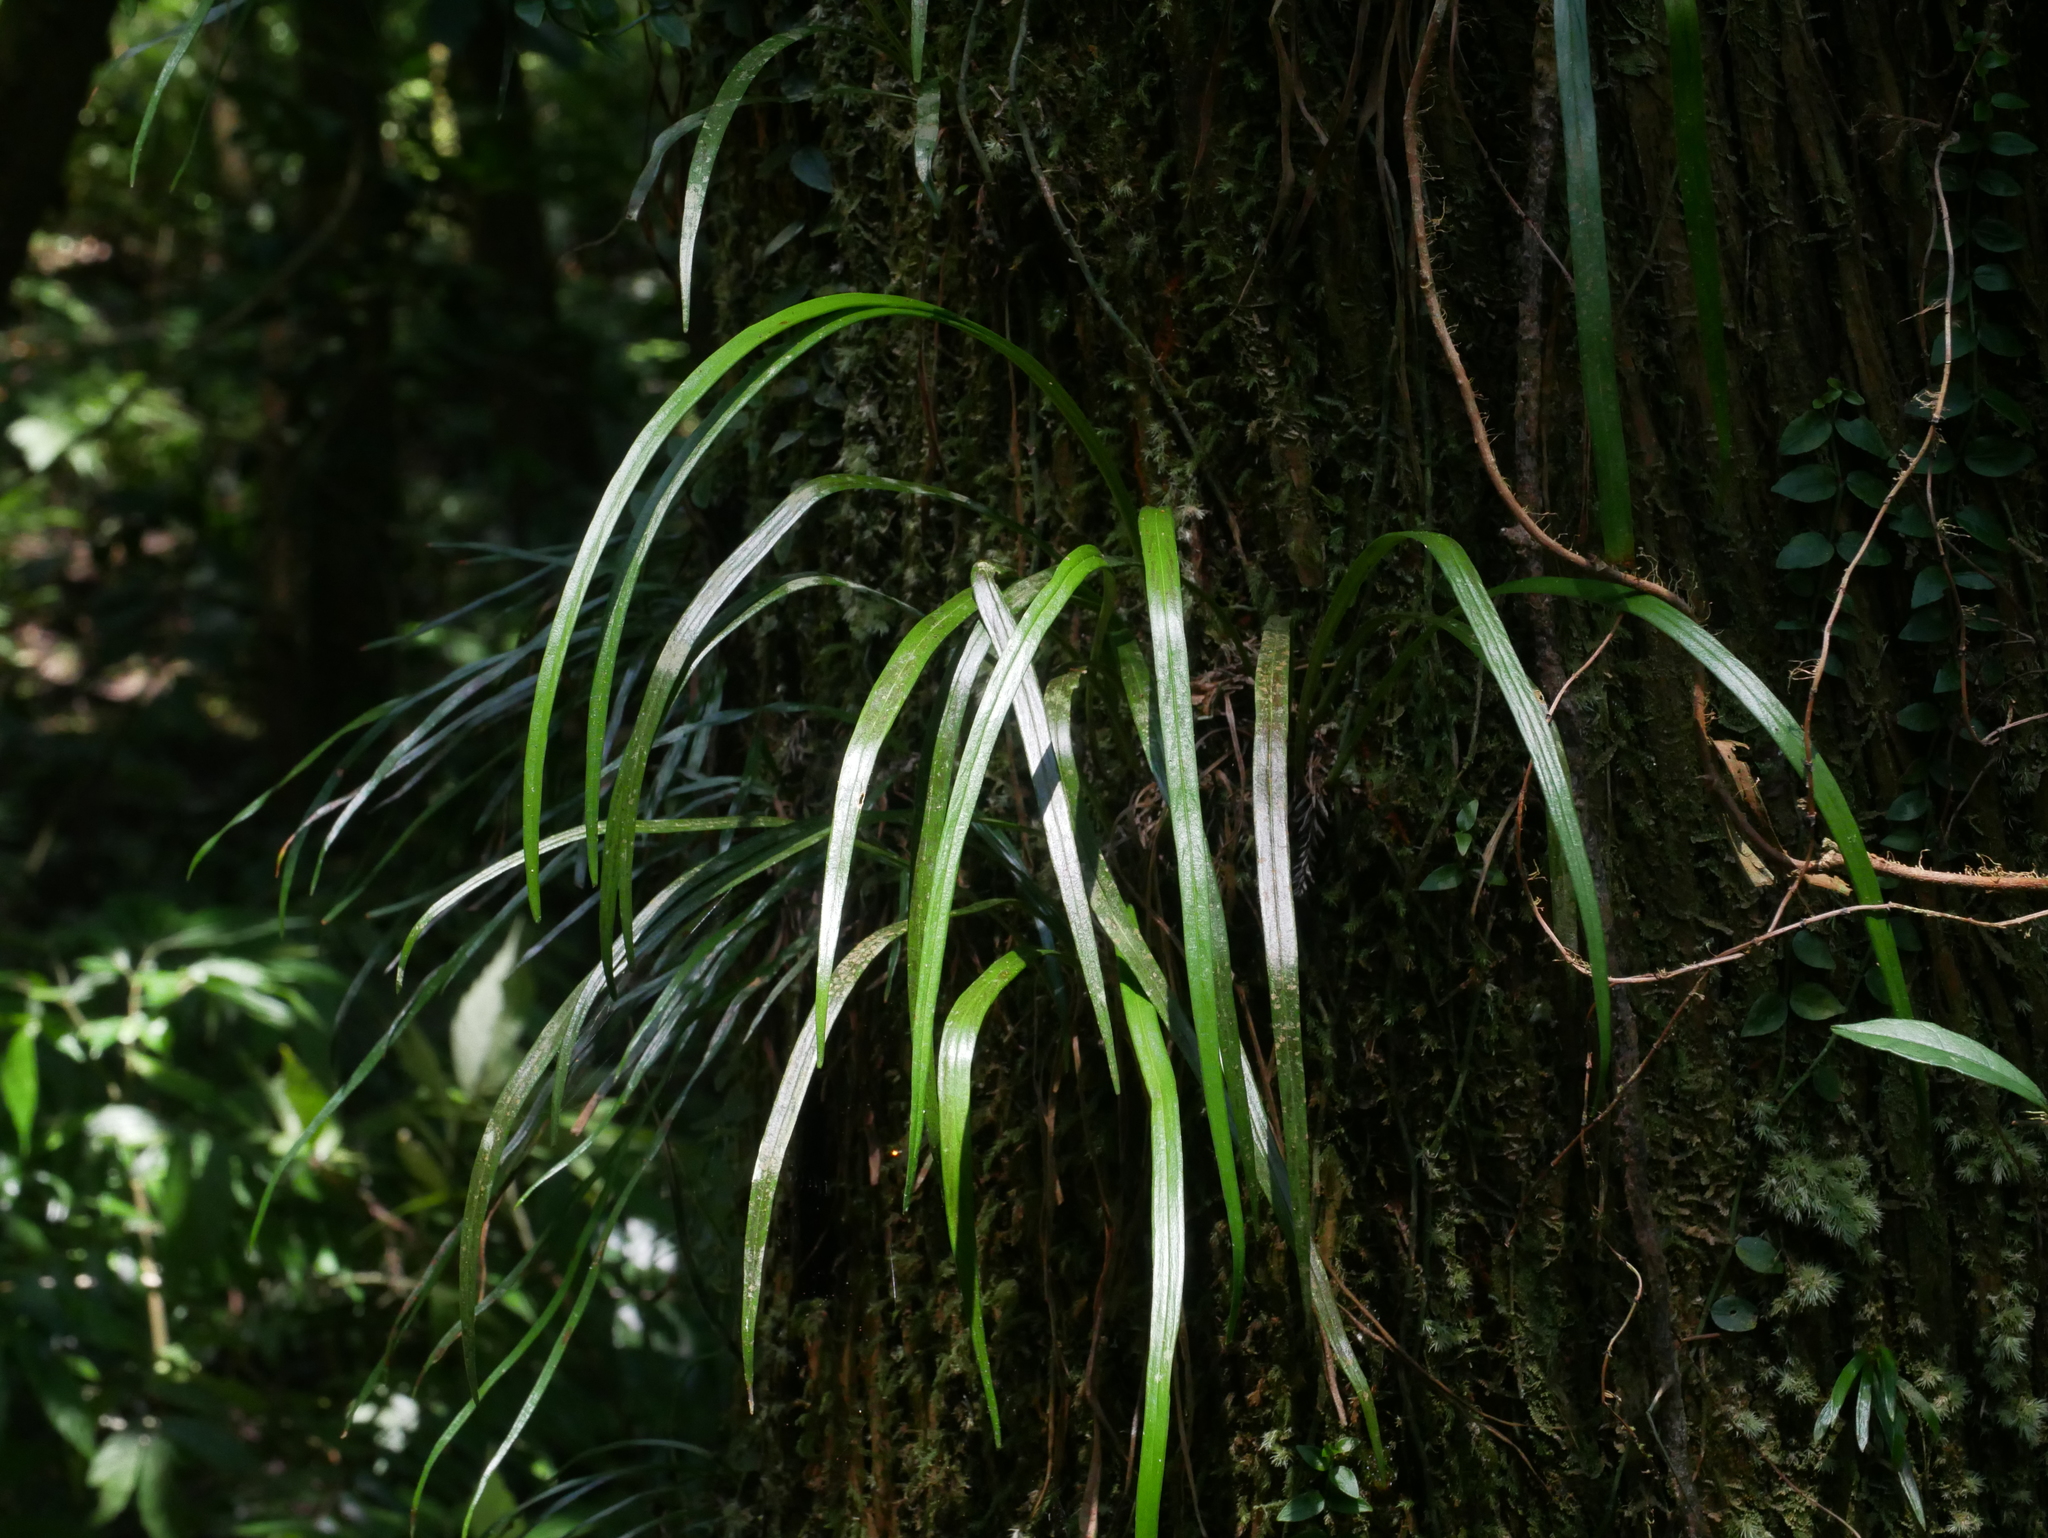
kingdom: Plantae
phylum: Tracheophyta
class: Polypodiopsida
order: Polypodiales
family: Pteridaceae
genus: Haplopteris
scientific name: Haplopteris flexuosa
